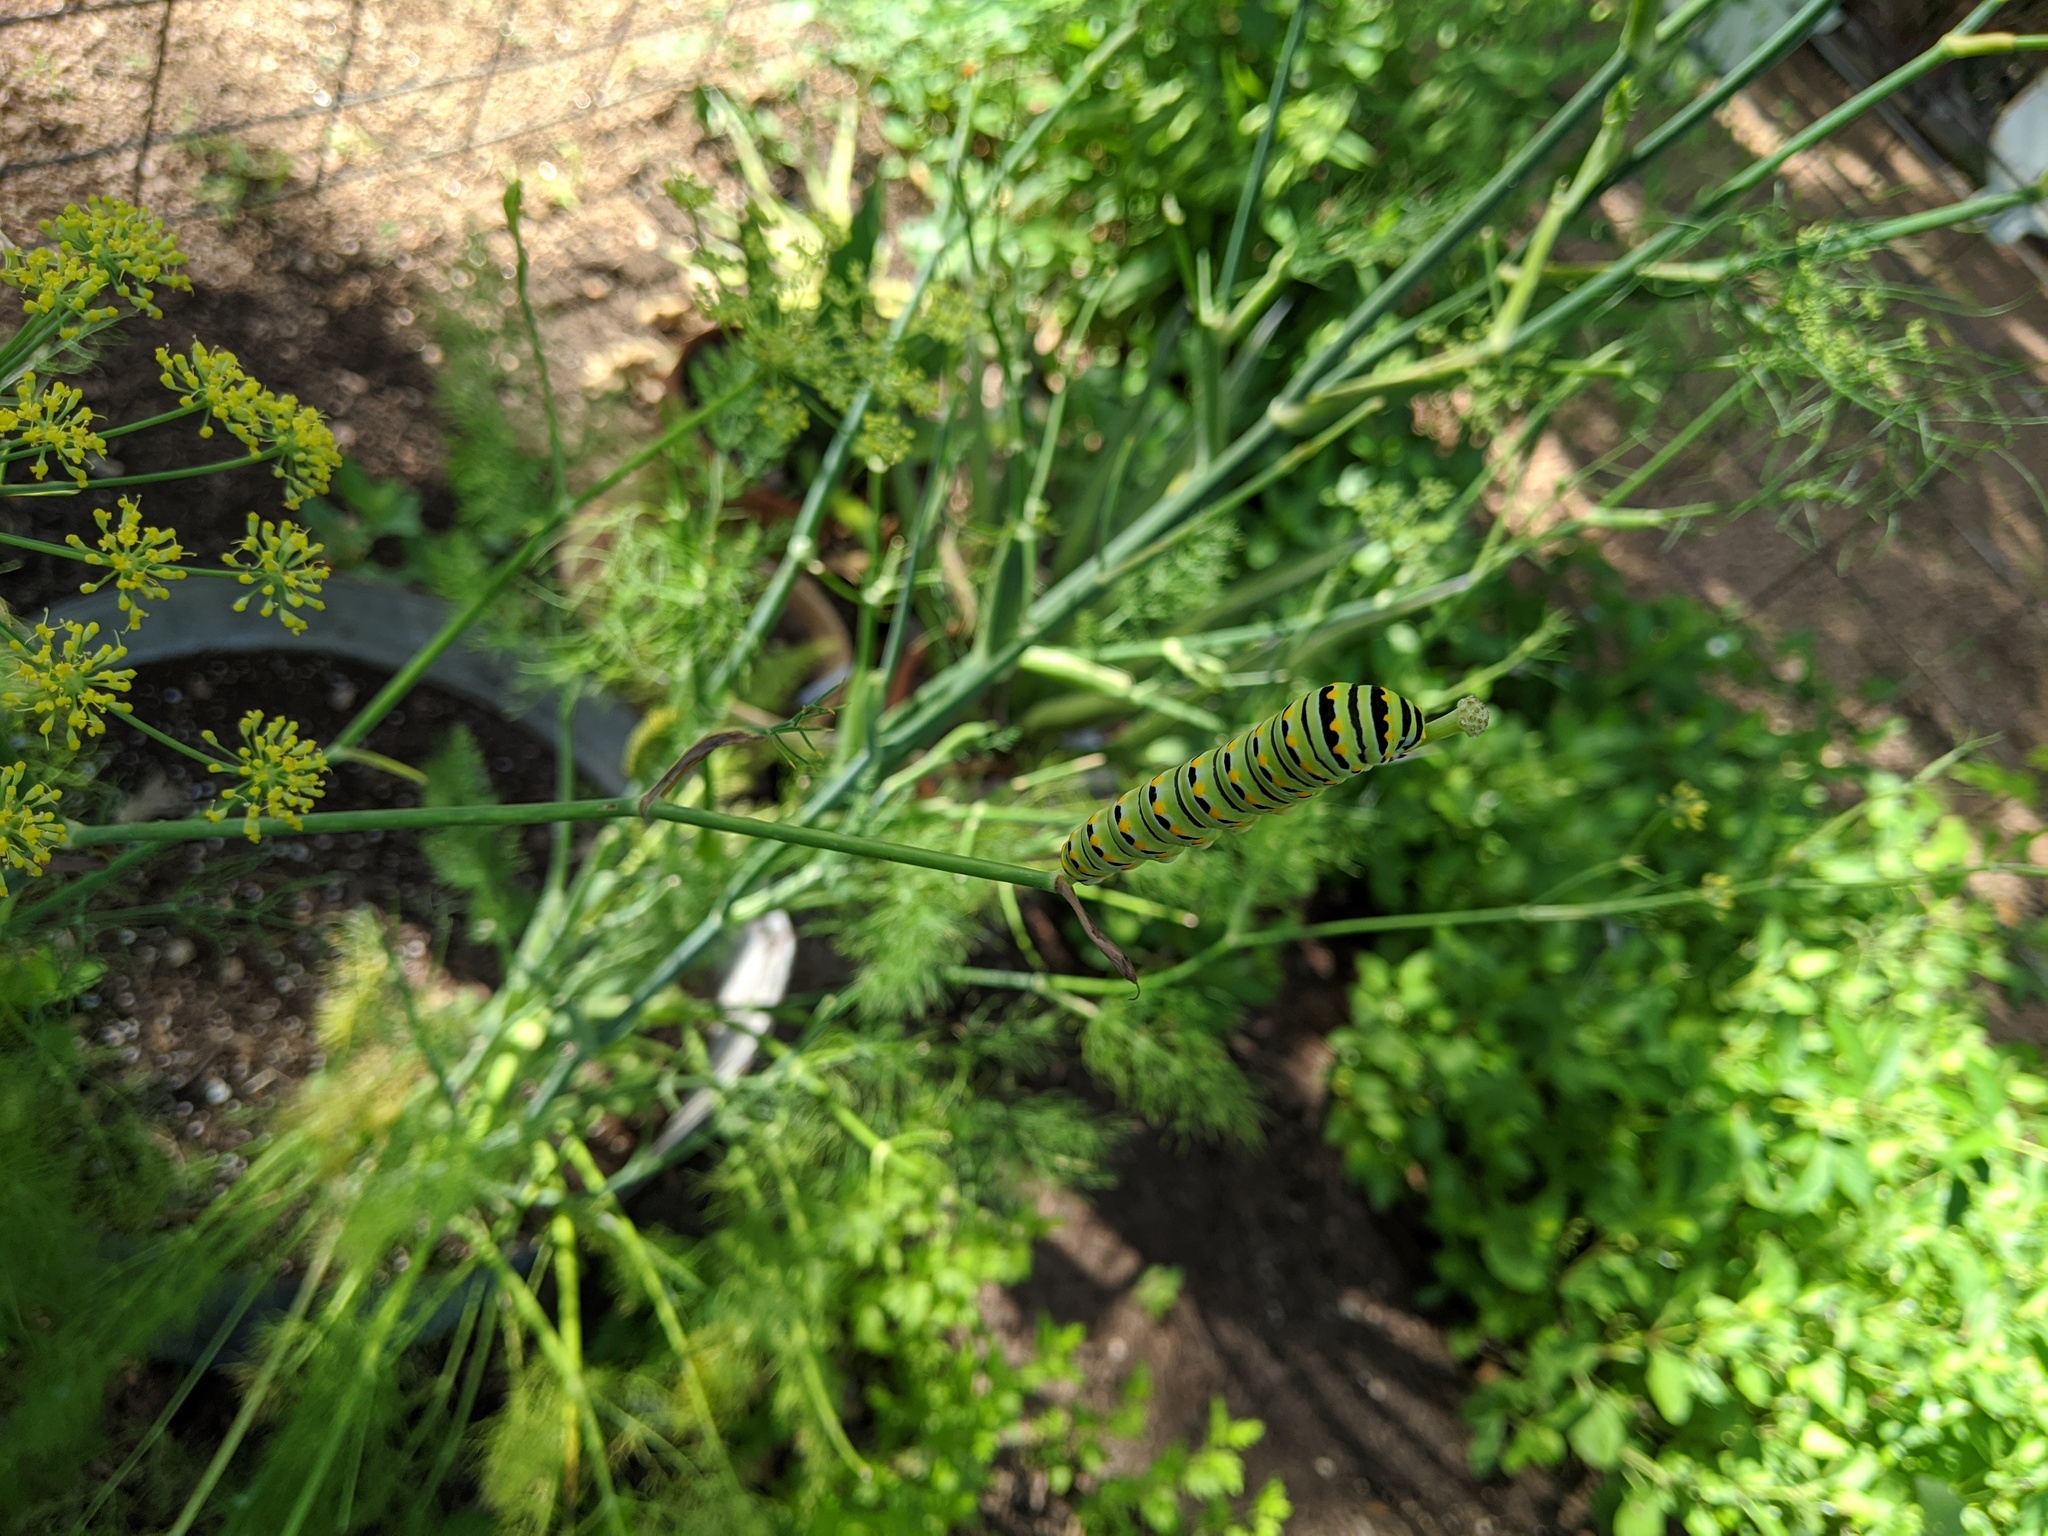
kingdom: Animalia
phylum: Arthropoda
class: Insecta
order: Lepidoptera
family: Papilionidae
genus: Papilio
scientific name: Papilio polyxenes
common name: Black swallowtail
